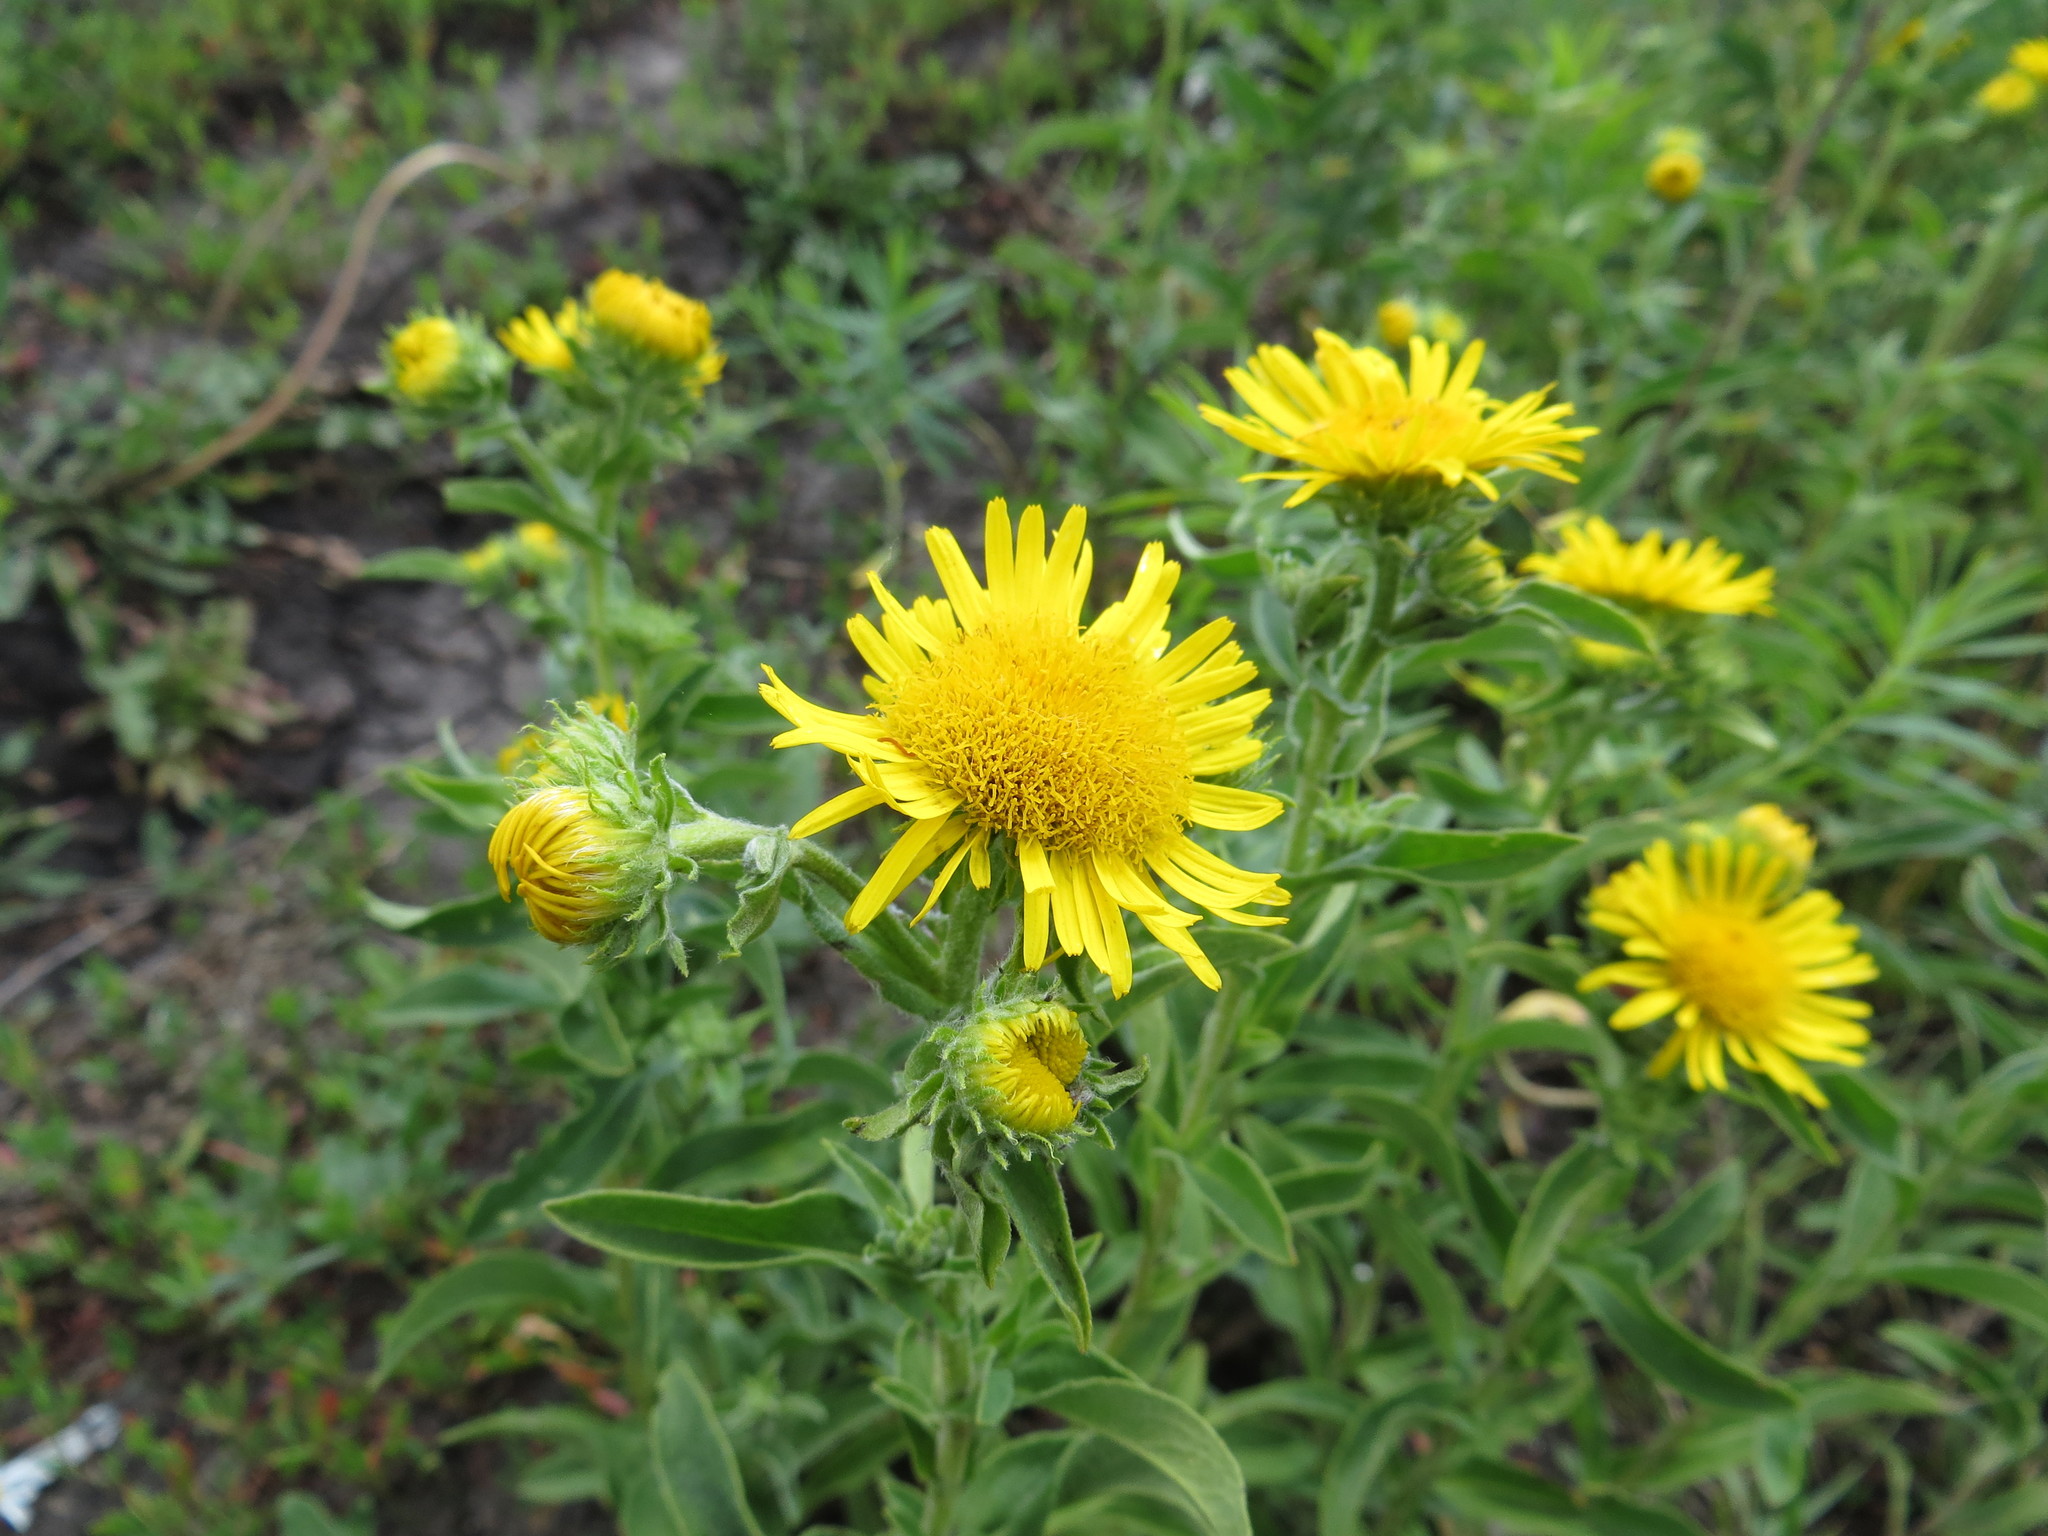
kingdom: Plantae
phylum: Tracheophyta
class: Magnoliopsida
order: Asterales
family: Asteraceae
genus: Pentanema
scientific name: Pentanema britannicum
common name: British elecampane
